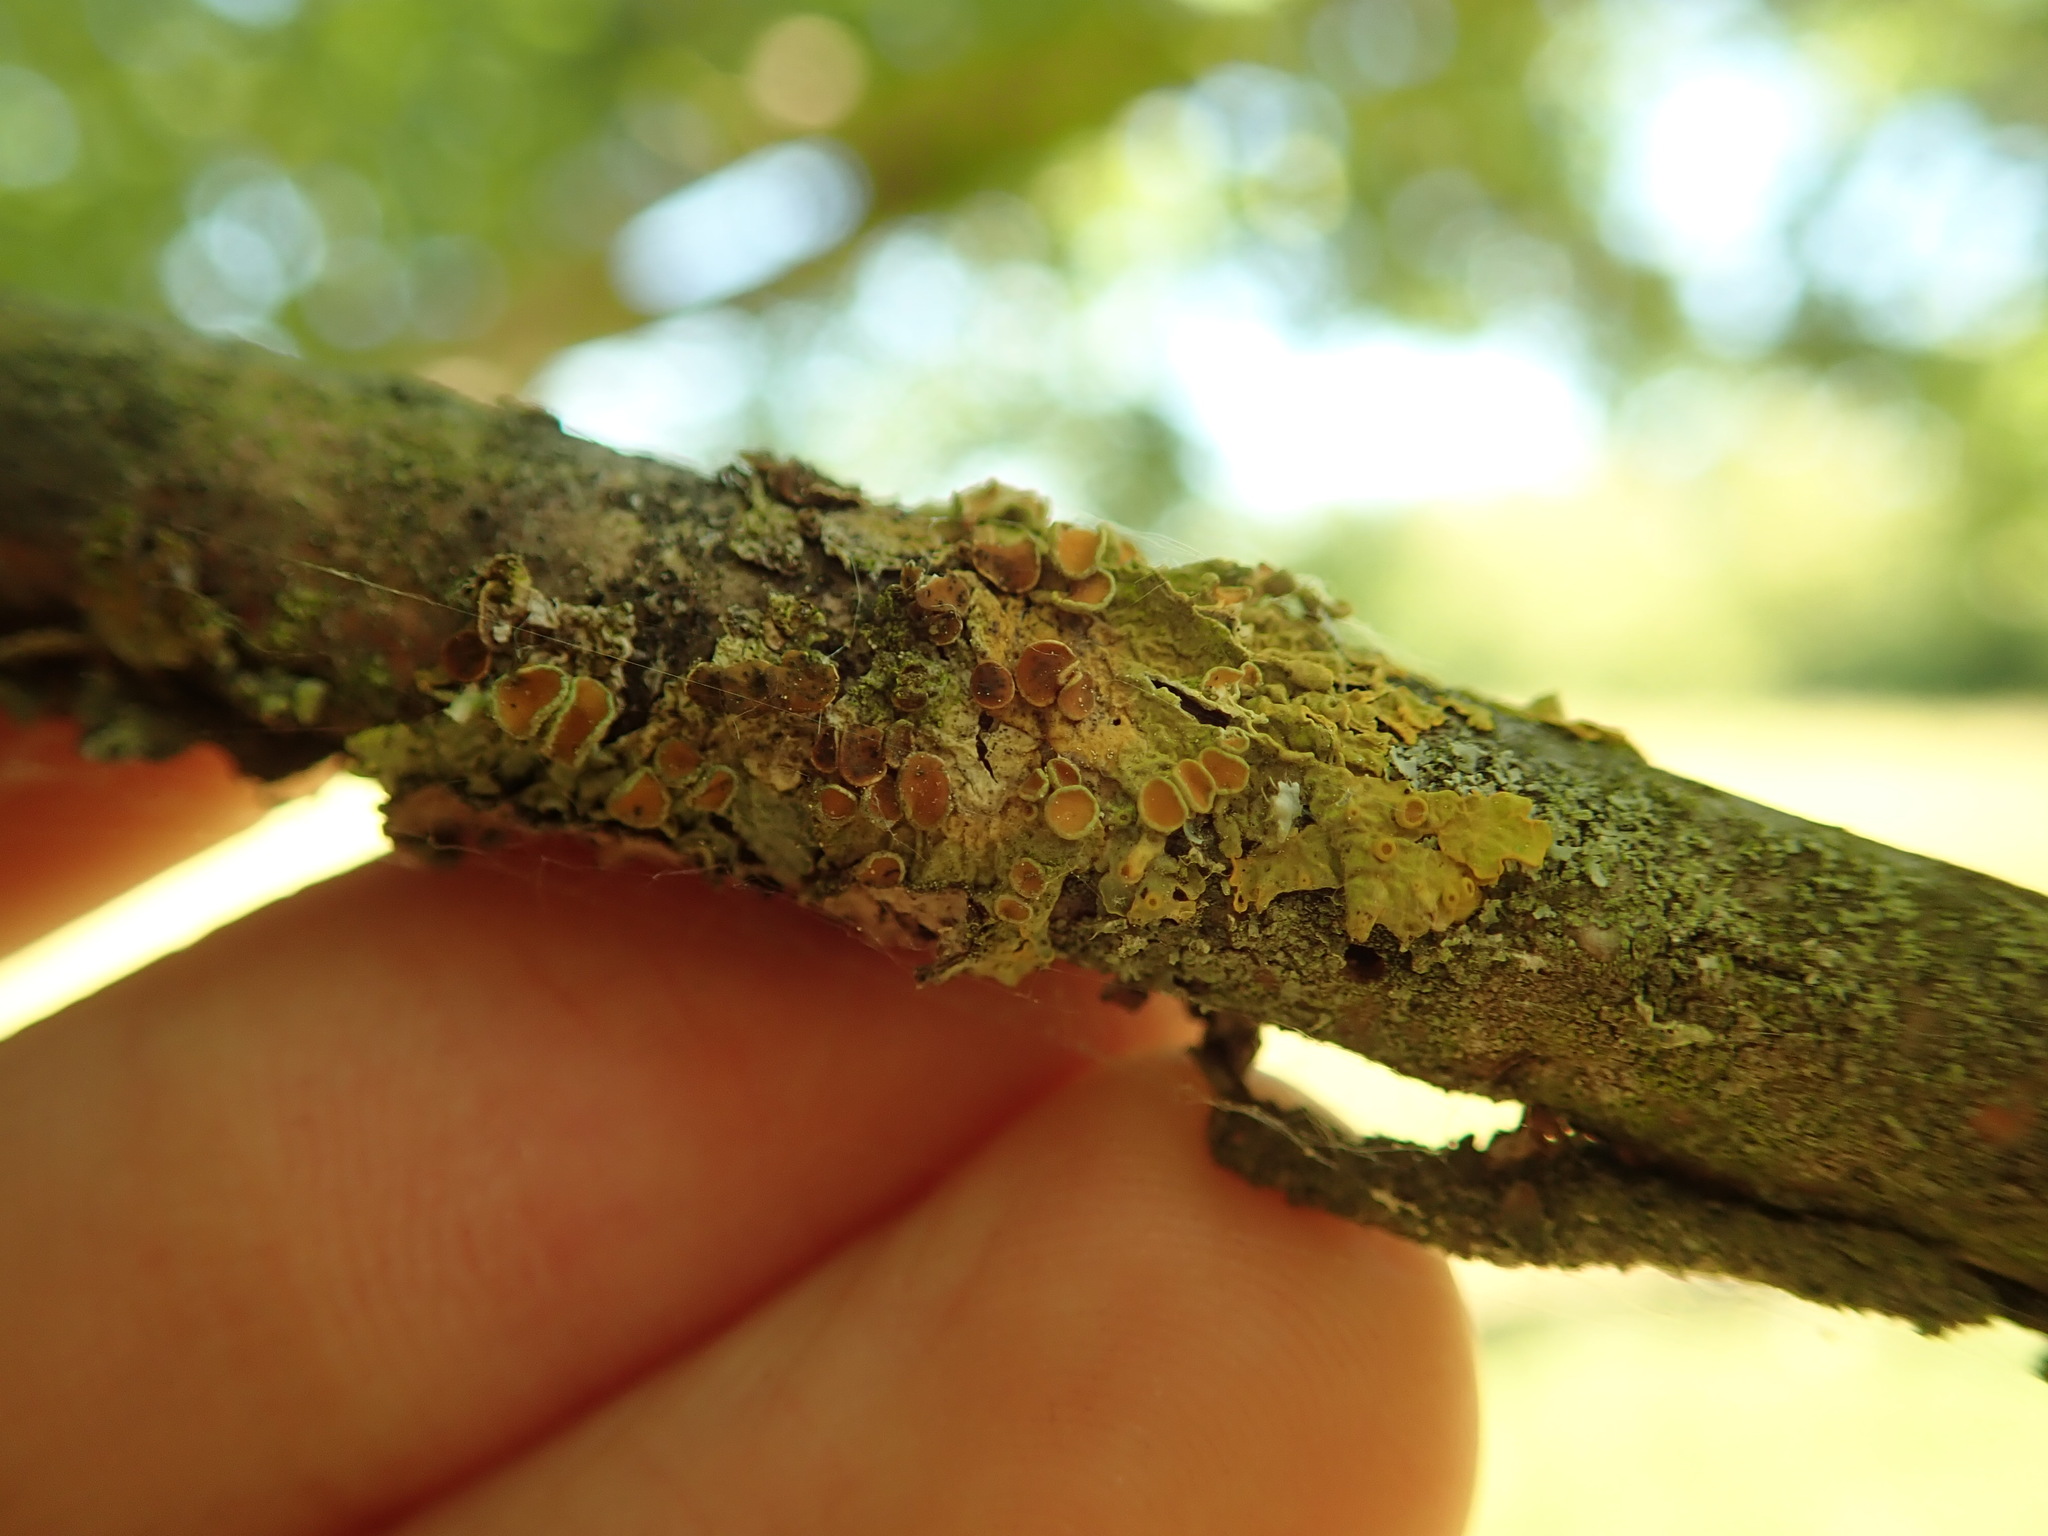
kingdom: Fungi
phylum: Ascomycota
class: Lecanoromycetes
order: Teloschistales
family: Teloschistaceae
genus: Xanthoria
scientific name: Xanthoria parietina
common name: Common orange lichen
